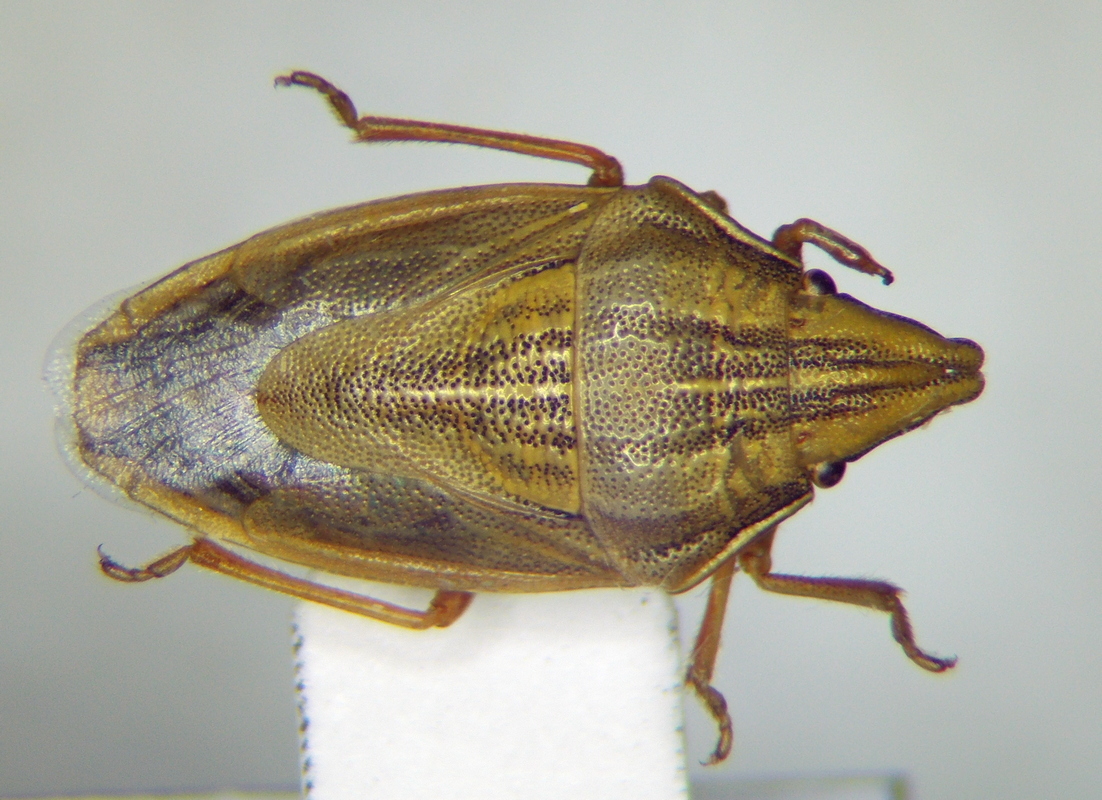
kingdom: Animalia
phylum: Arthropoda
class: Insecta
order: Hemiptera
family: Pentatomidae
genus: Aelia
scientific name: Aelia acuminata
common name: Bishop's mitre
